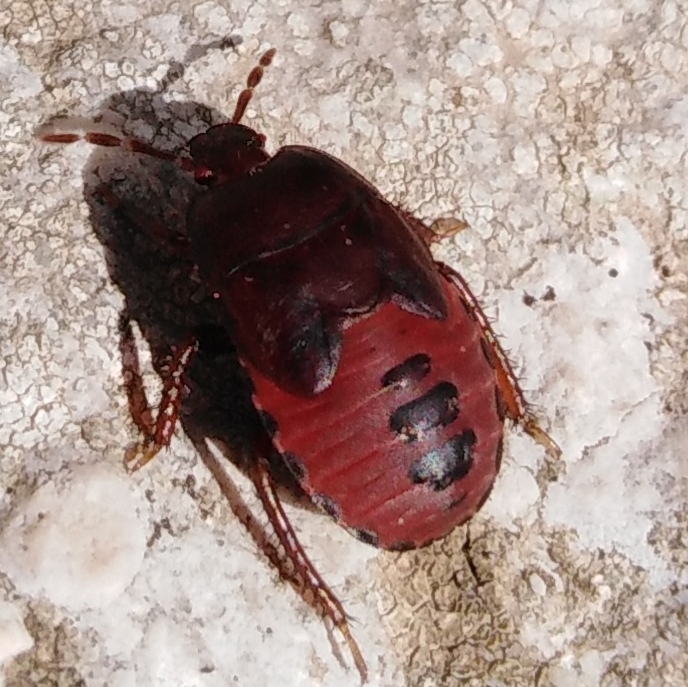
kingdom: Animalia
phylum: Arthropoda
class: Insecta
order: Hemiptera
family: Cydnidae
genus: Cydnus
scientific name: Cydnus aterrimus
